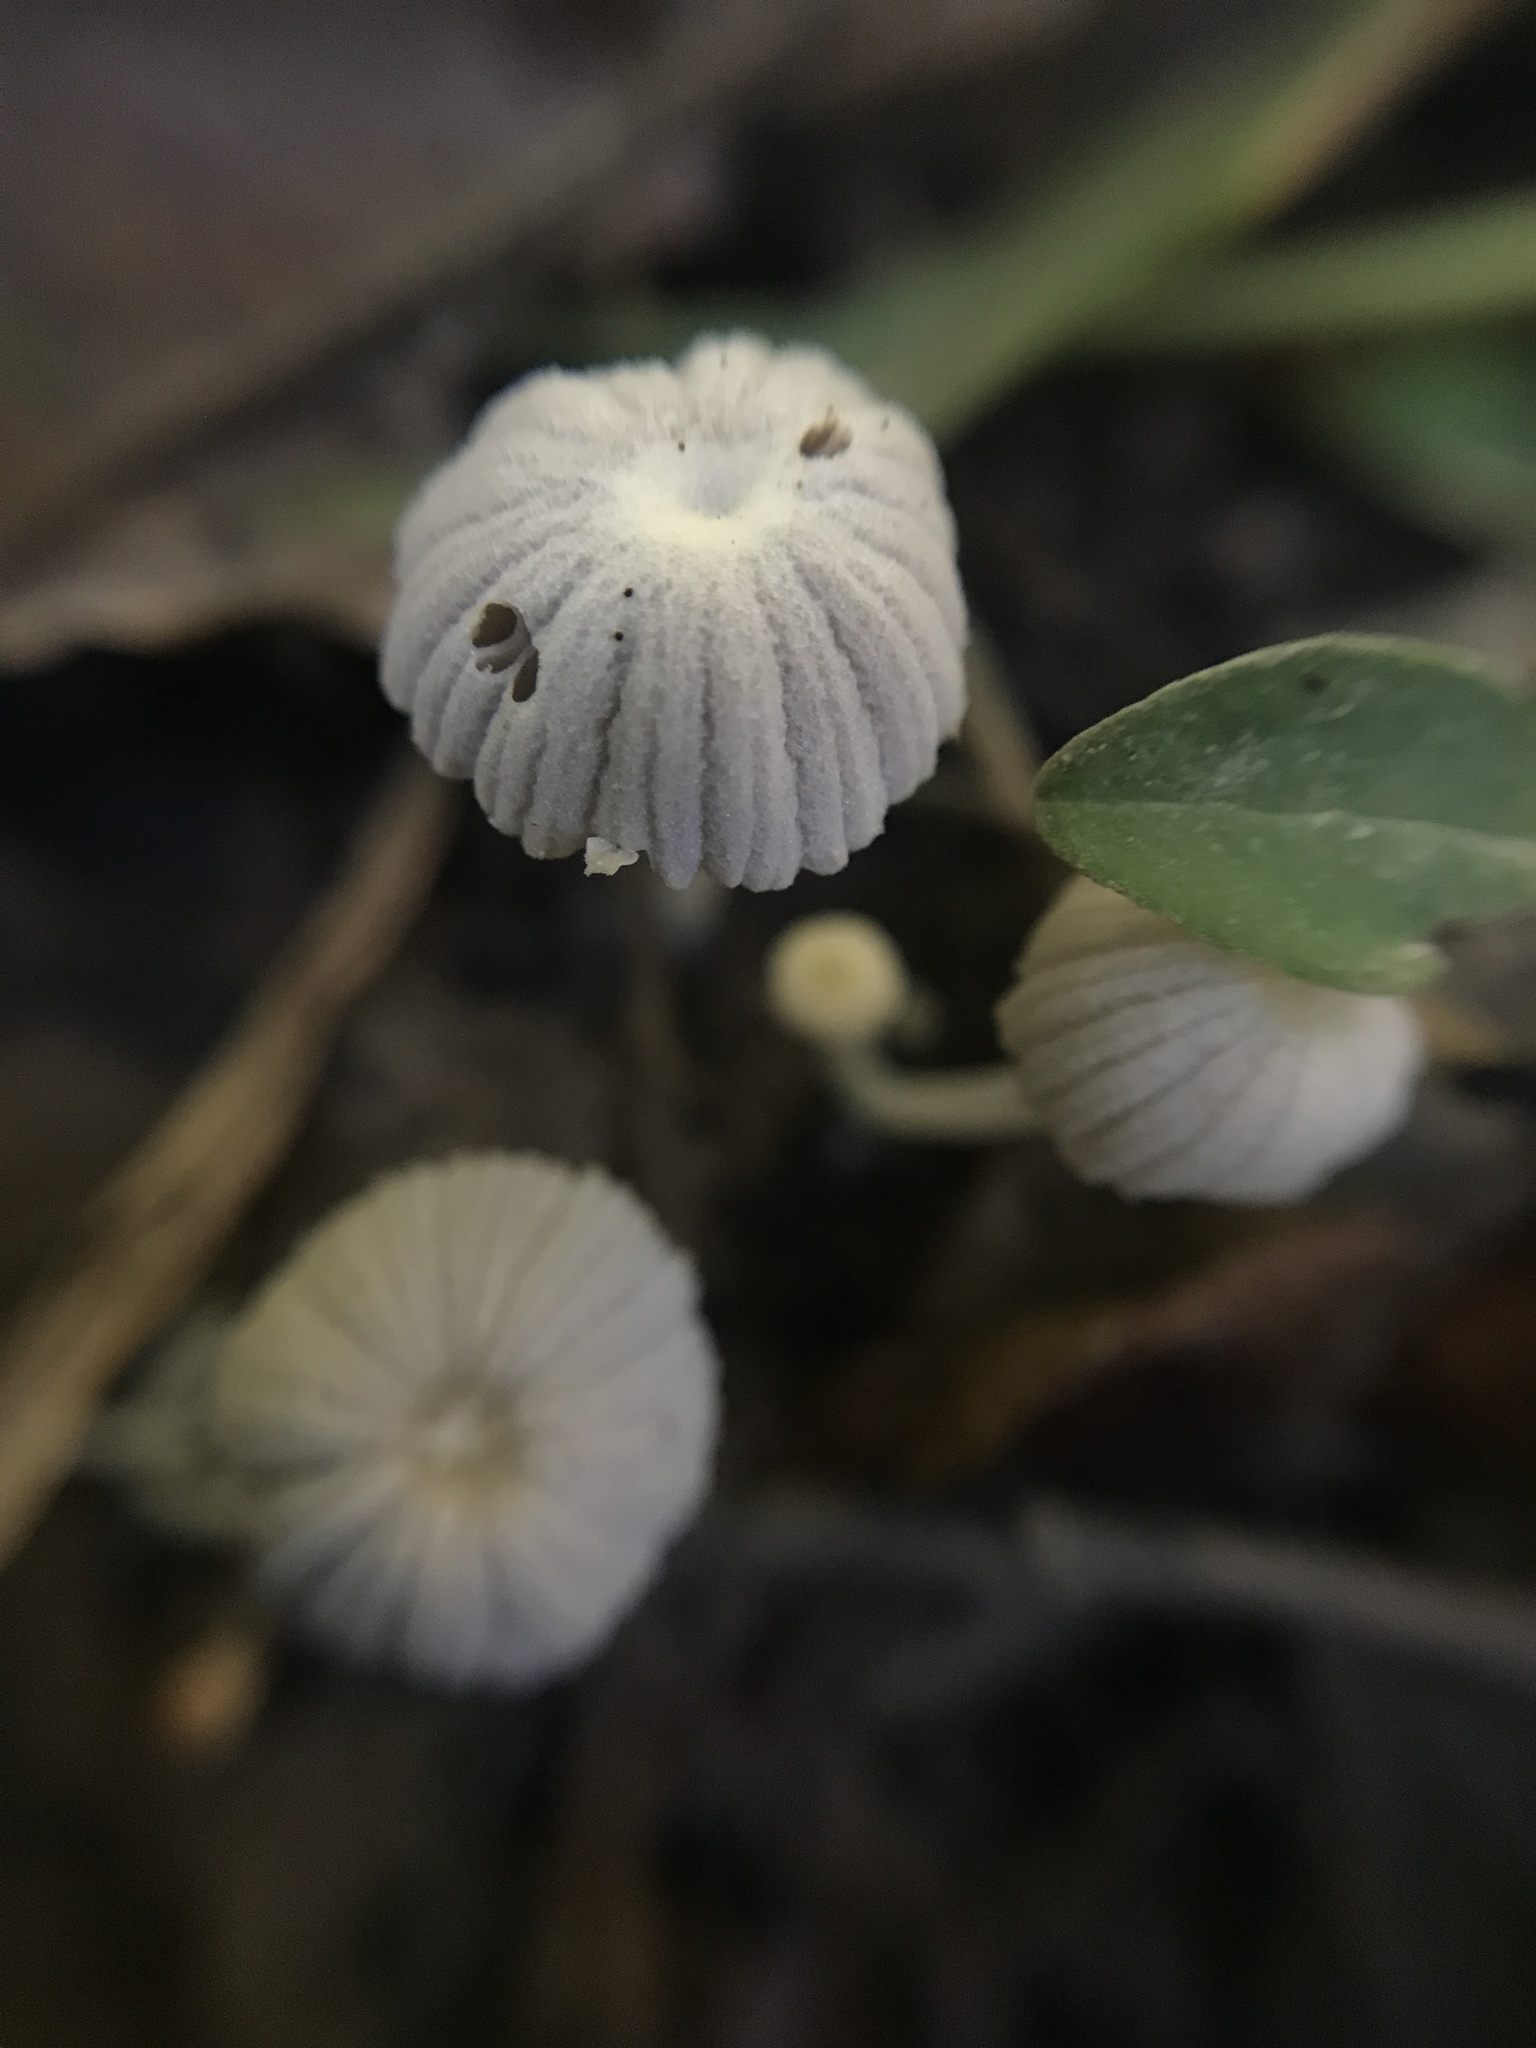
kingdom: Fungi
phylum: Basidiomycota
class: Agaricomycetes
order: Agaricales
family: Psathyrellaceae
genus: Coprinellus
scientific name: Coprinellus disseminatus
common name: Fairies' bonnets
